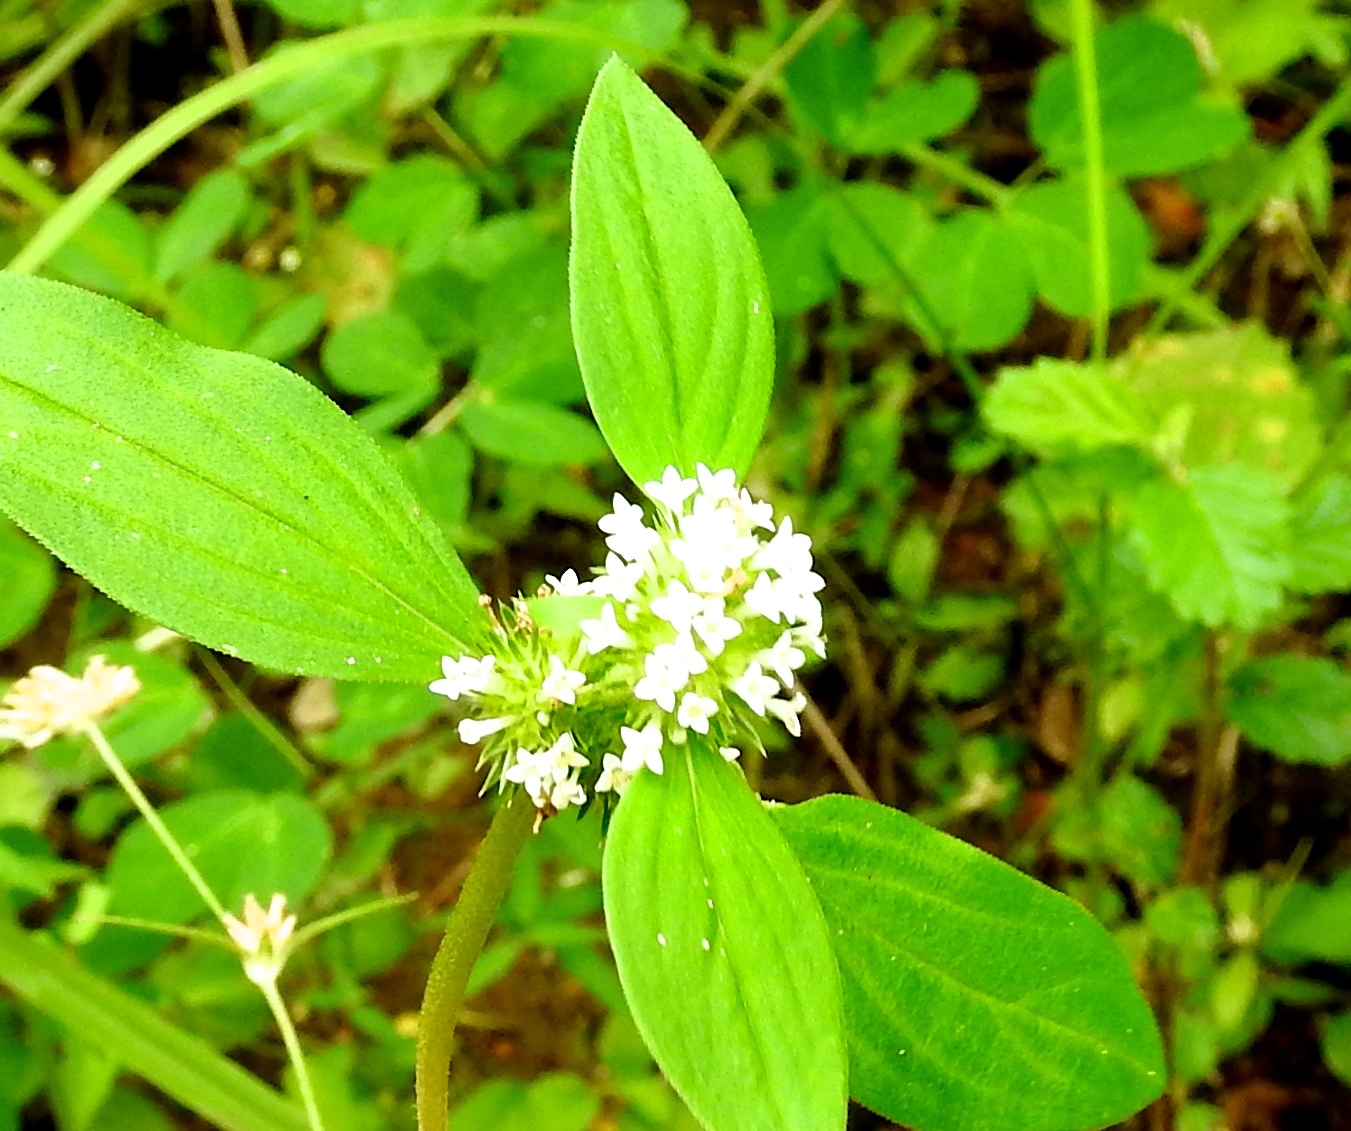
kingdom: Plantae
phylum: Tracheophyta
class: Magnoliopsida
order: Gentianales
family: Rubiaceae
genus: Mitracarpus
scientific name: Mitracarpus hirtus
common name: Tropical girdlepod
